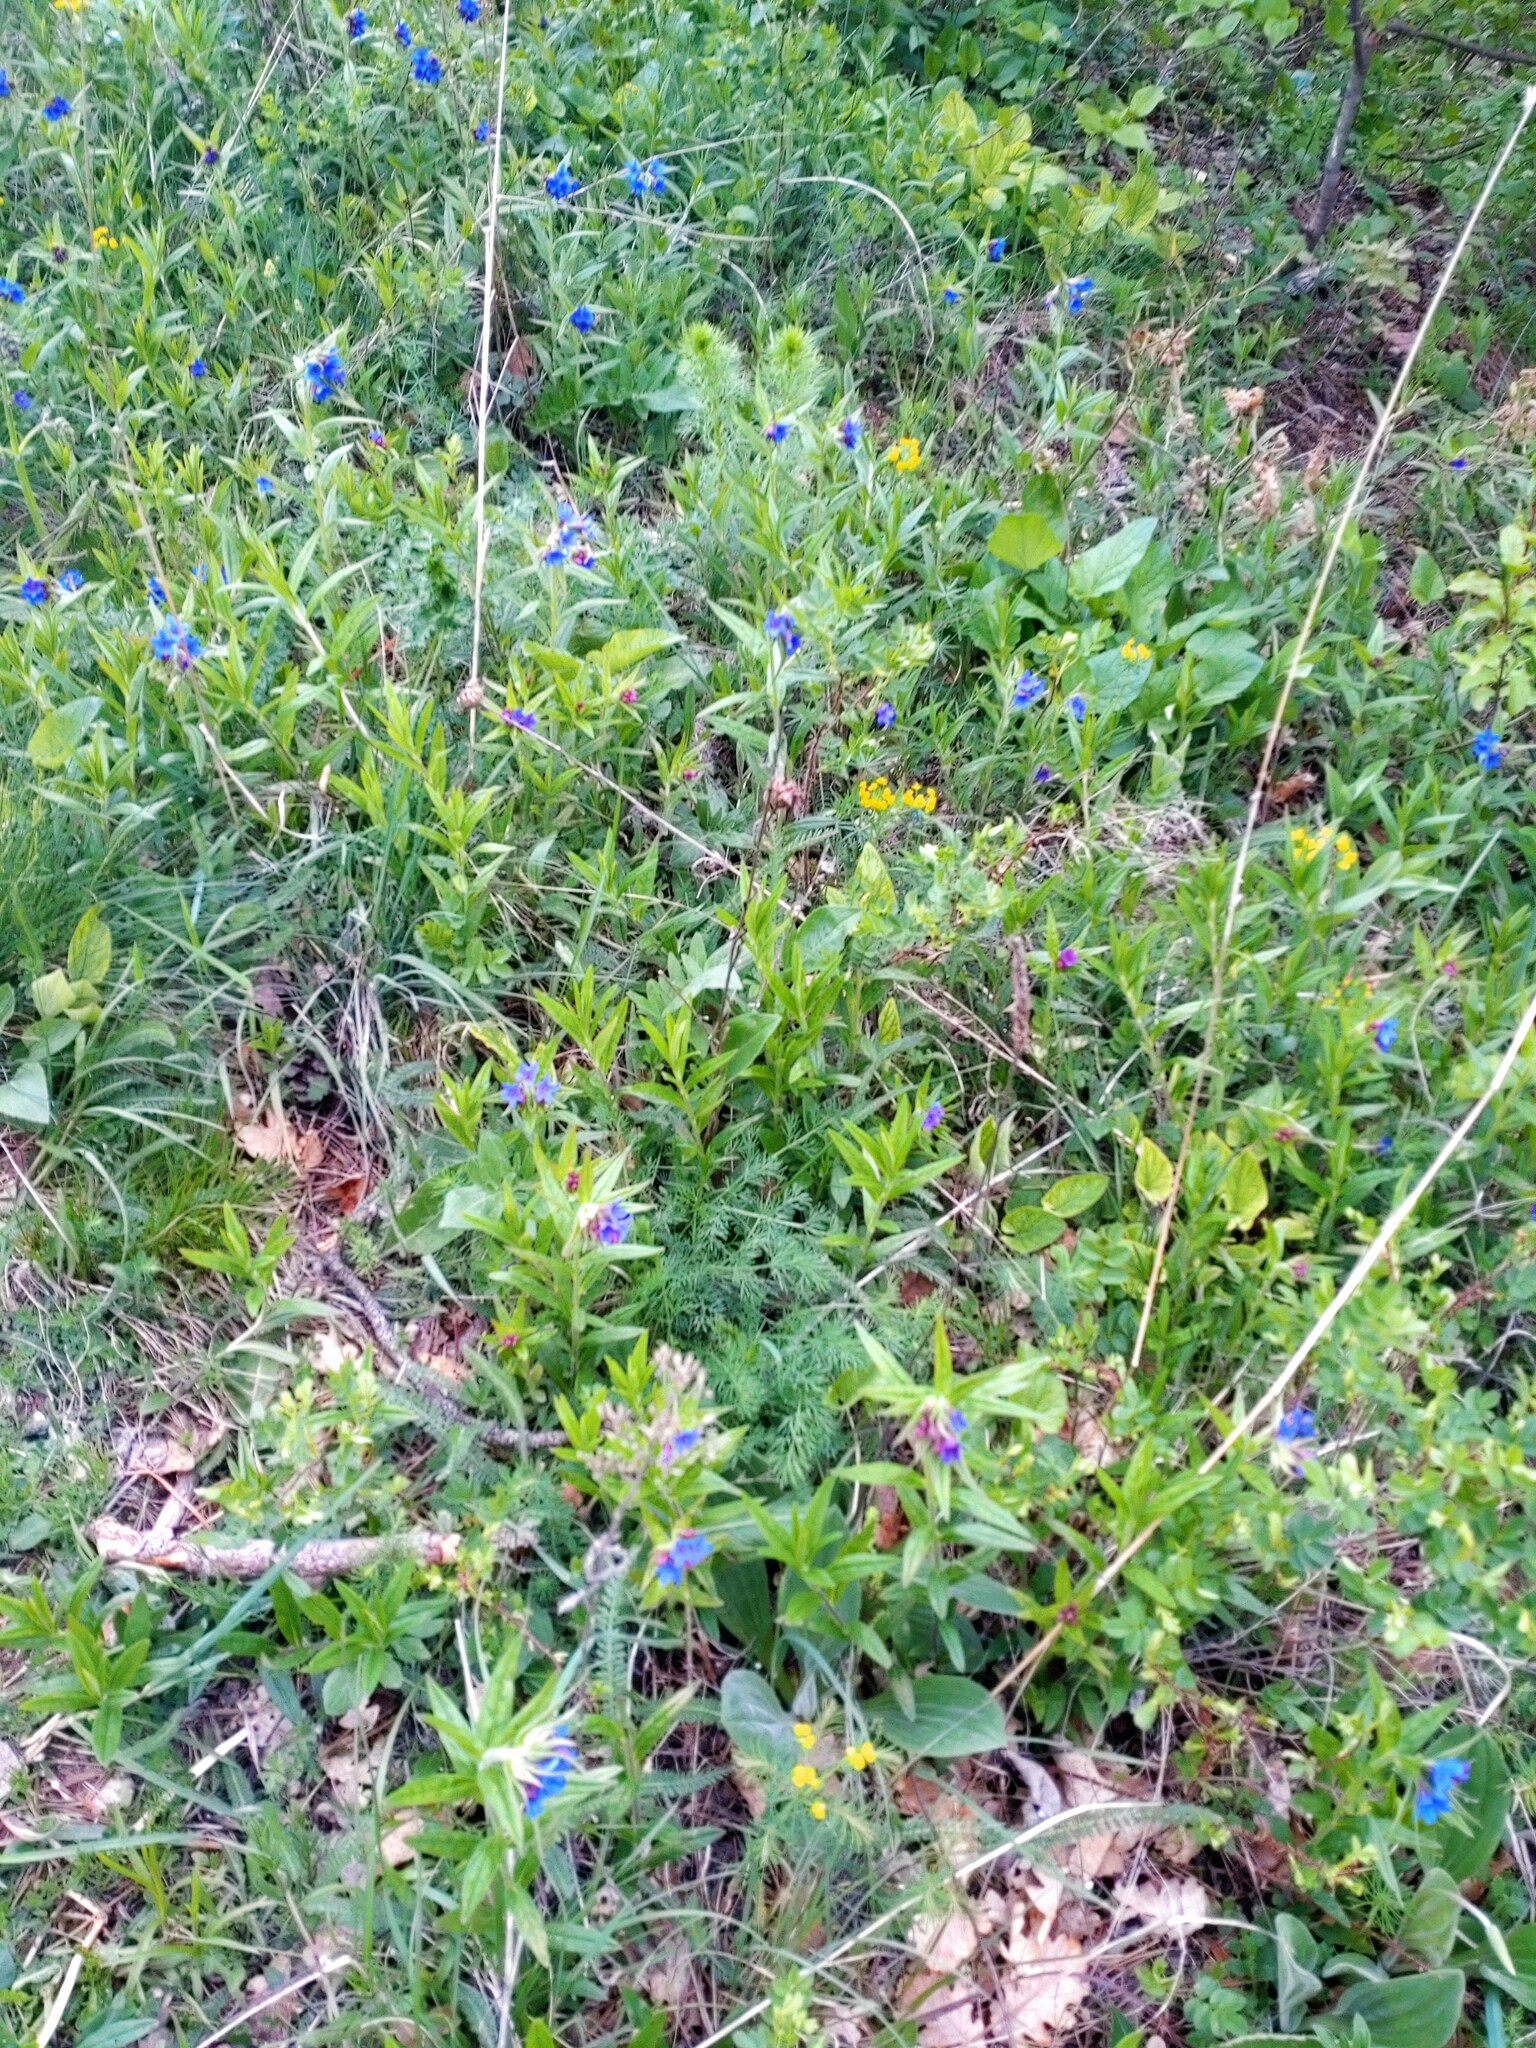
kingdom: Plantae
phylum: Tracheophyta
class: Magnoliopsida
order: Boraginales
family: Boraginaceae
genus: Aegonychon
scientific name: Aegonychon purpurocaeruleum
